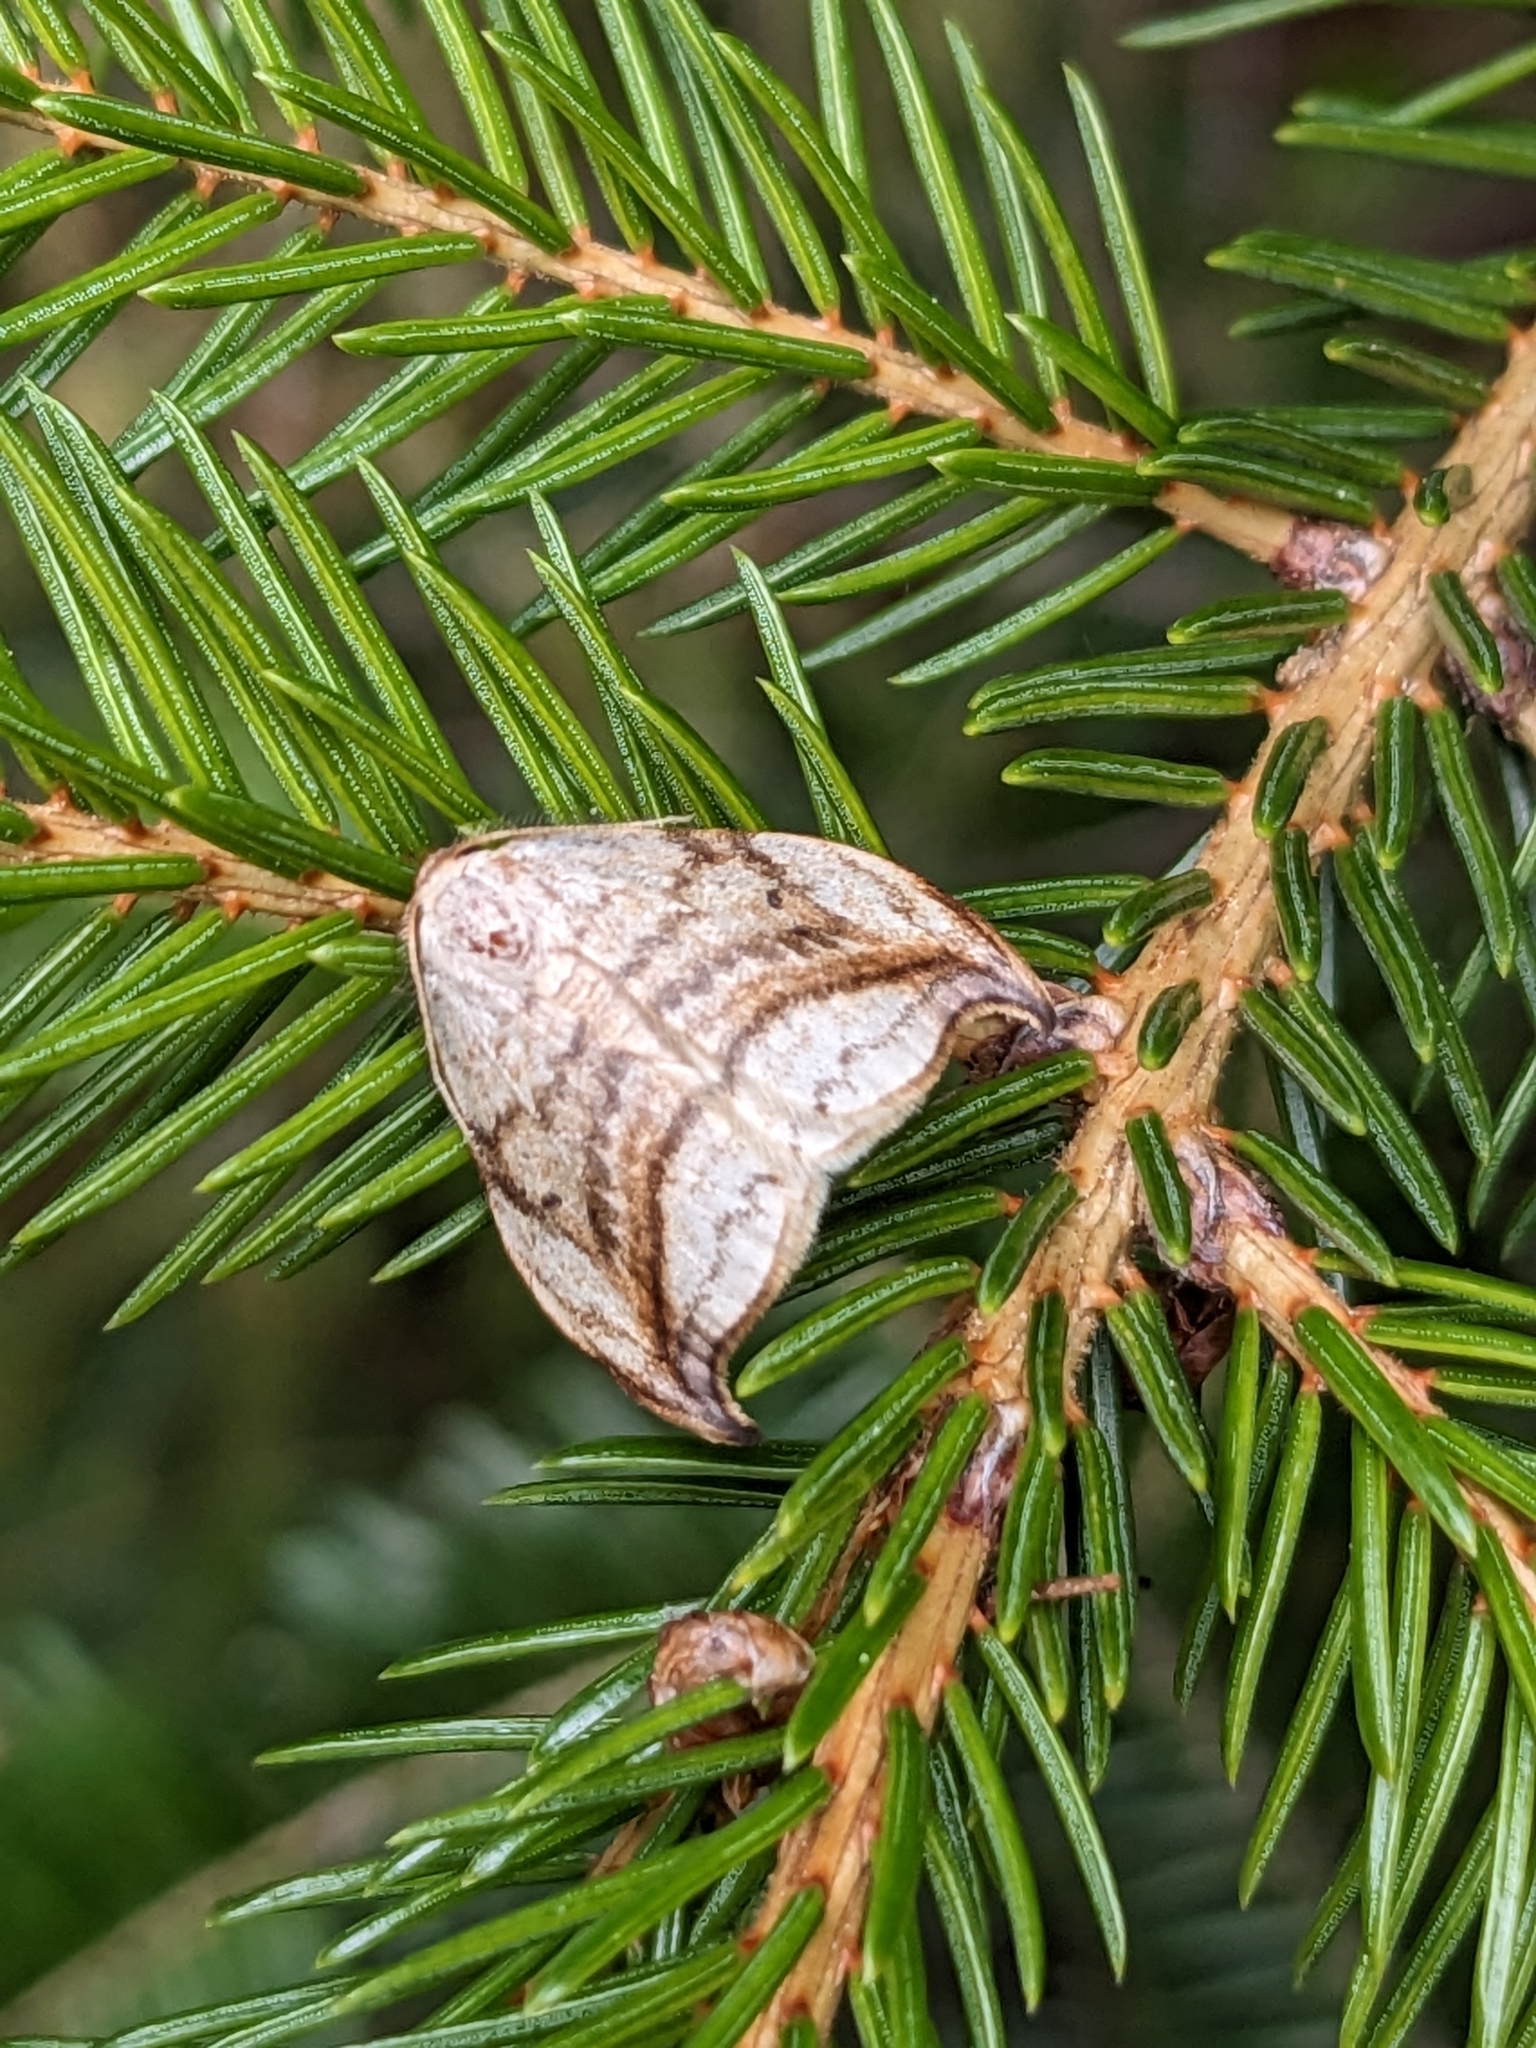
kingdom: Animalia
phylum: Arthropoda
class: Insecta
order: Lepidoptera
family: Drepanidae
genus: Drepana
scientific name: Drepana arcuata
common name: Arched hooktip moth
